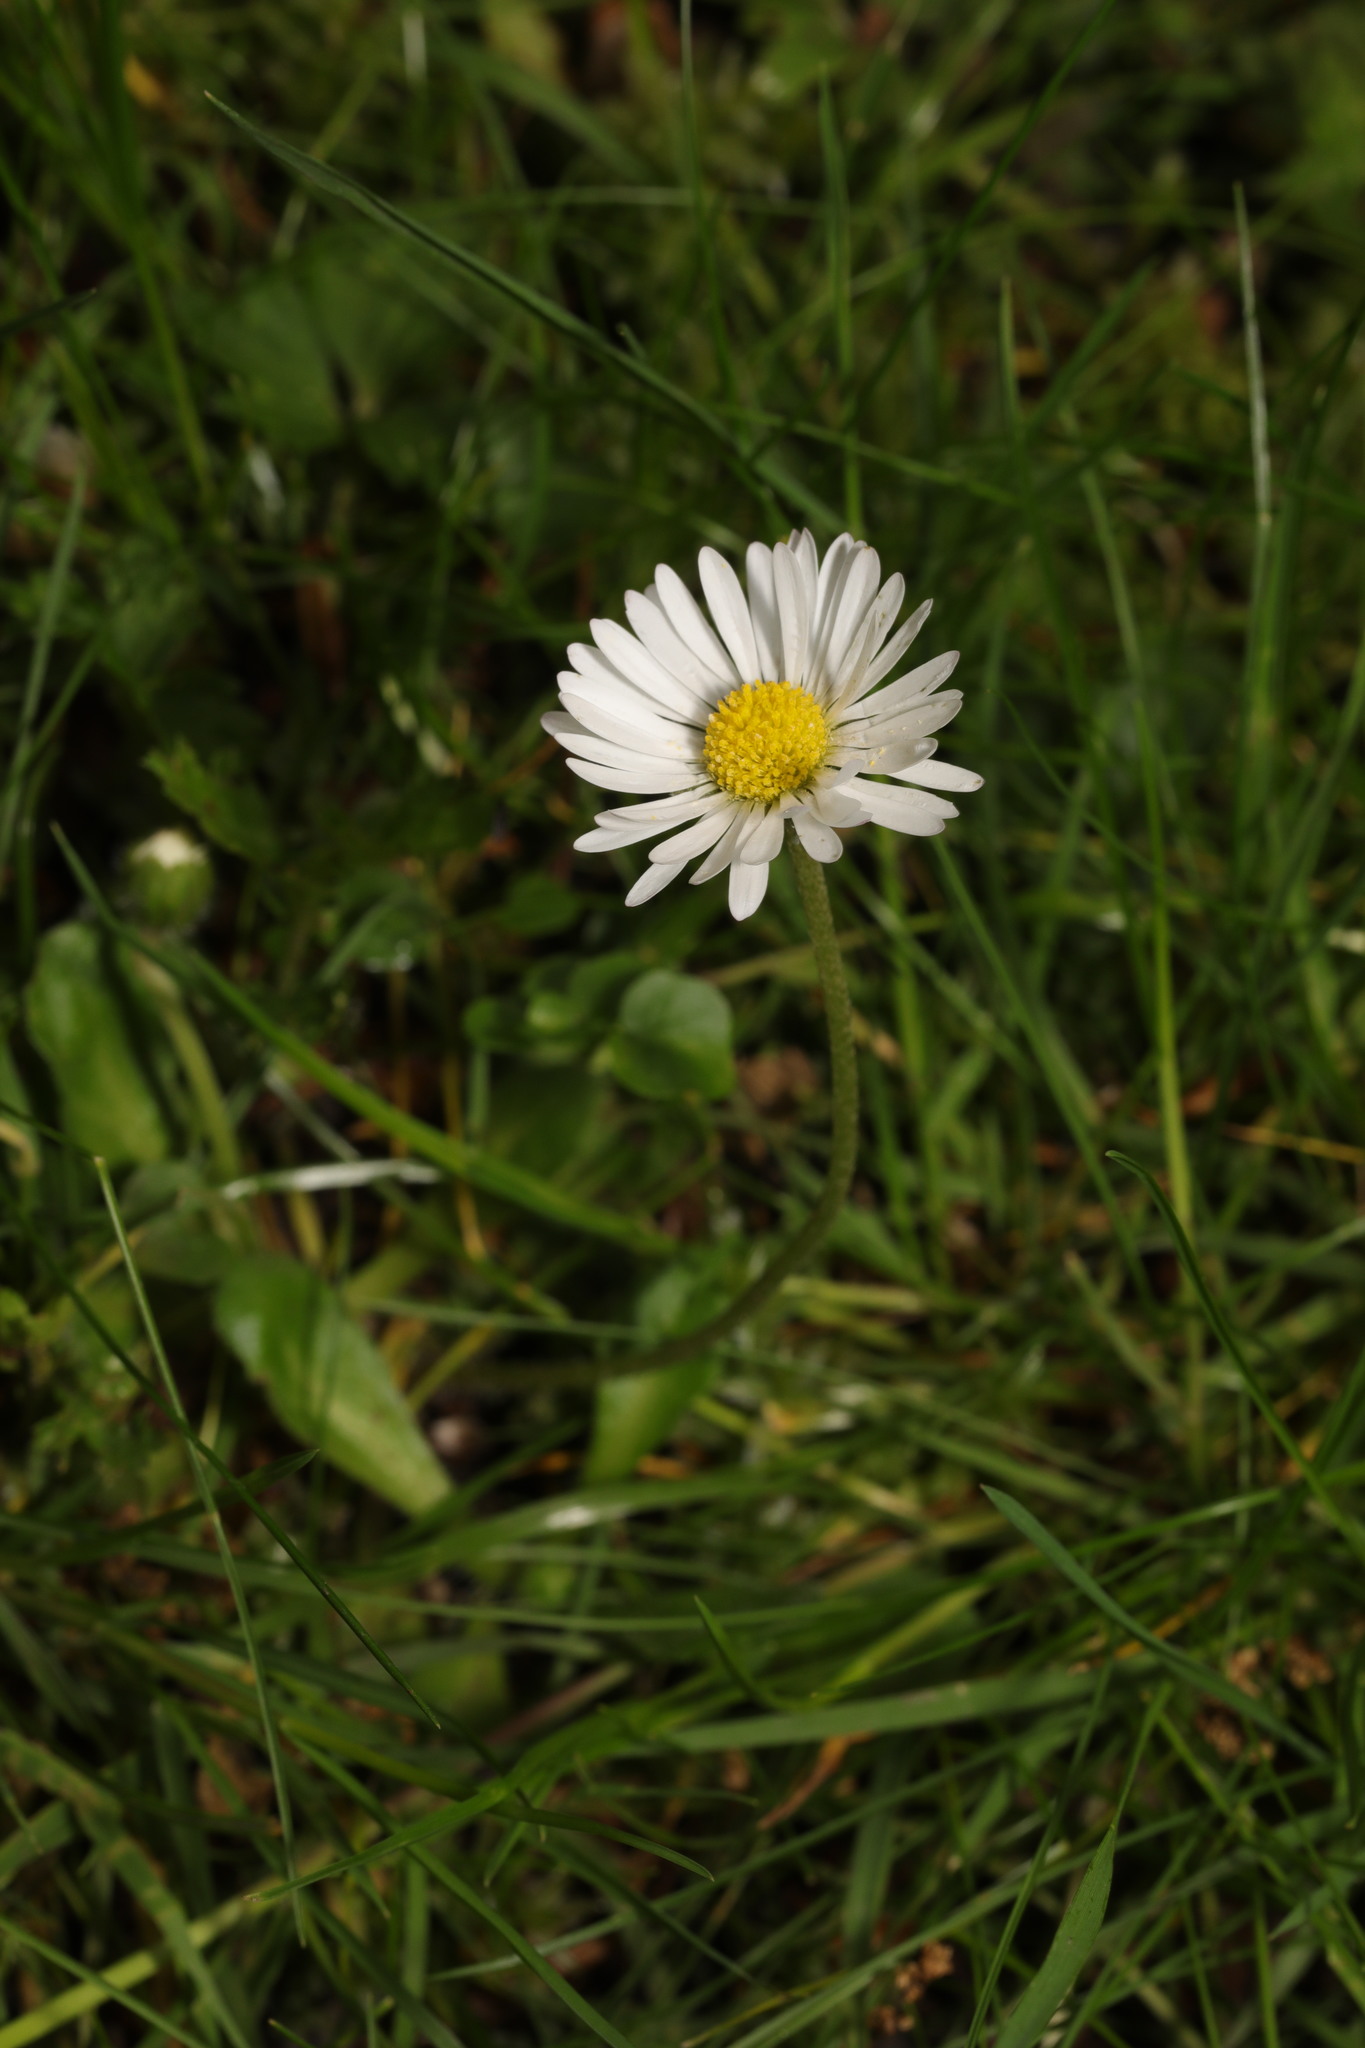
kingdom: Plantae
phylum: Tracheophyta
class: Magnoliopsida
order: Asterales
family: Asteraceae
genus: Bellis
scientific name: Bellis perennis
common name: Lawndaisy
